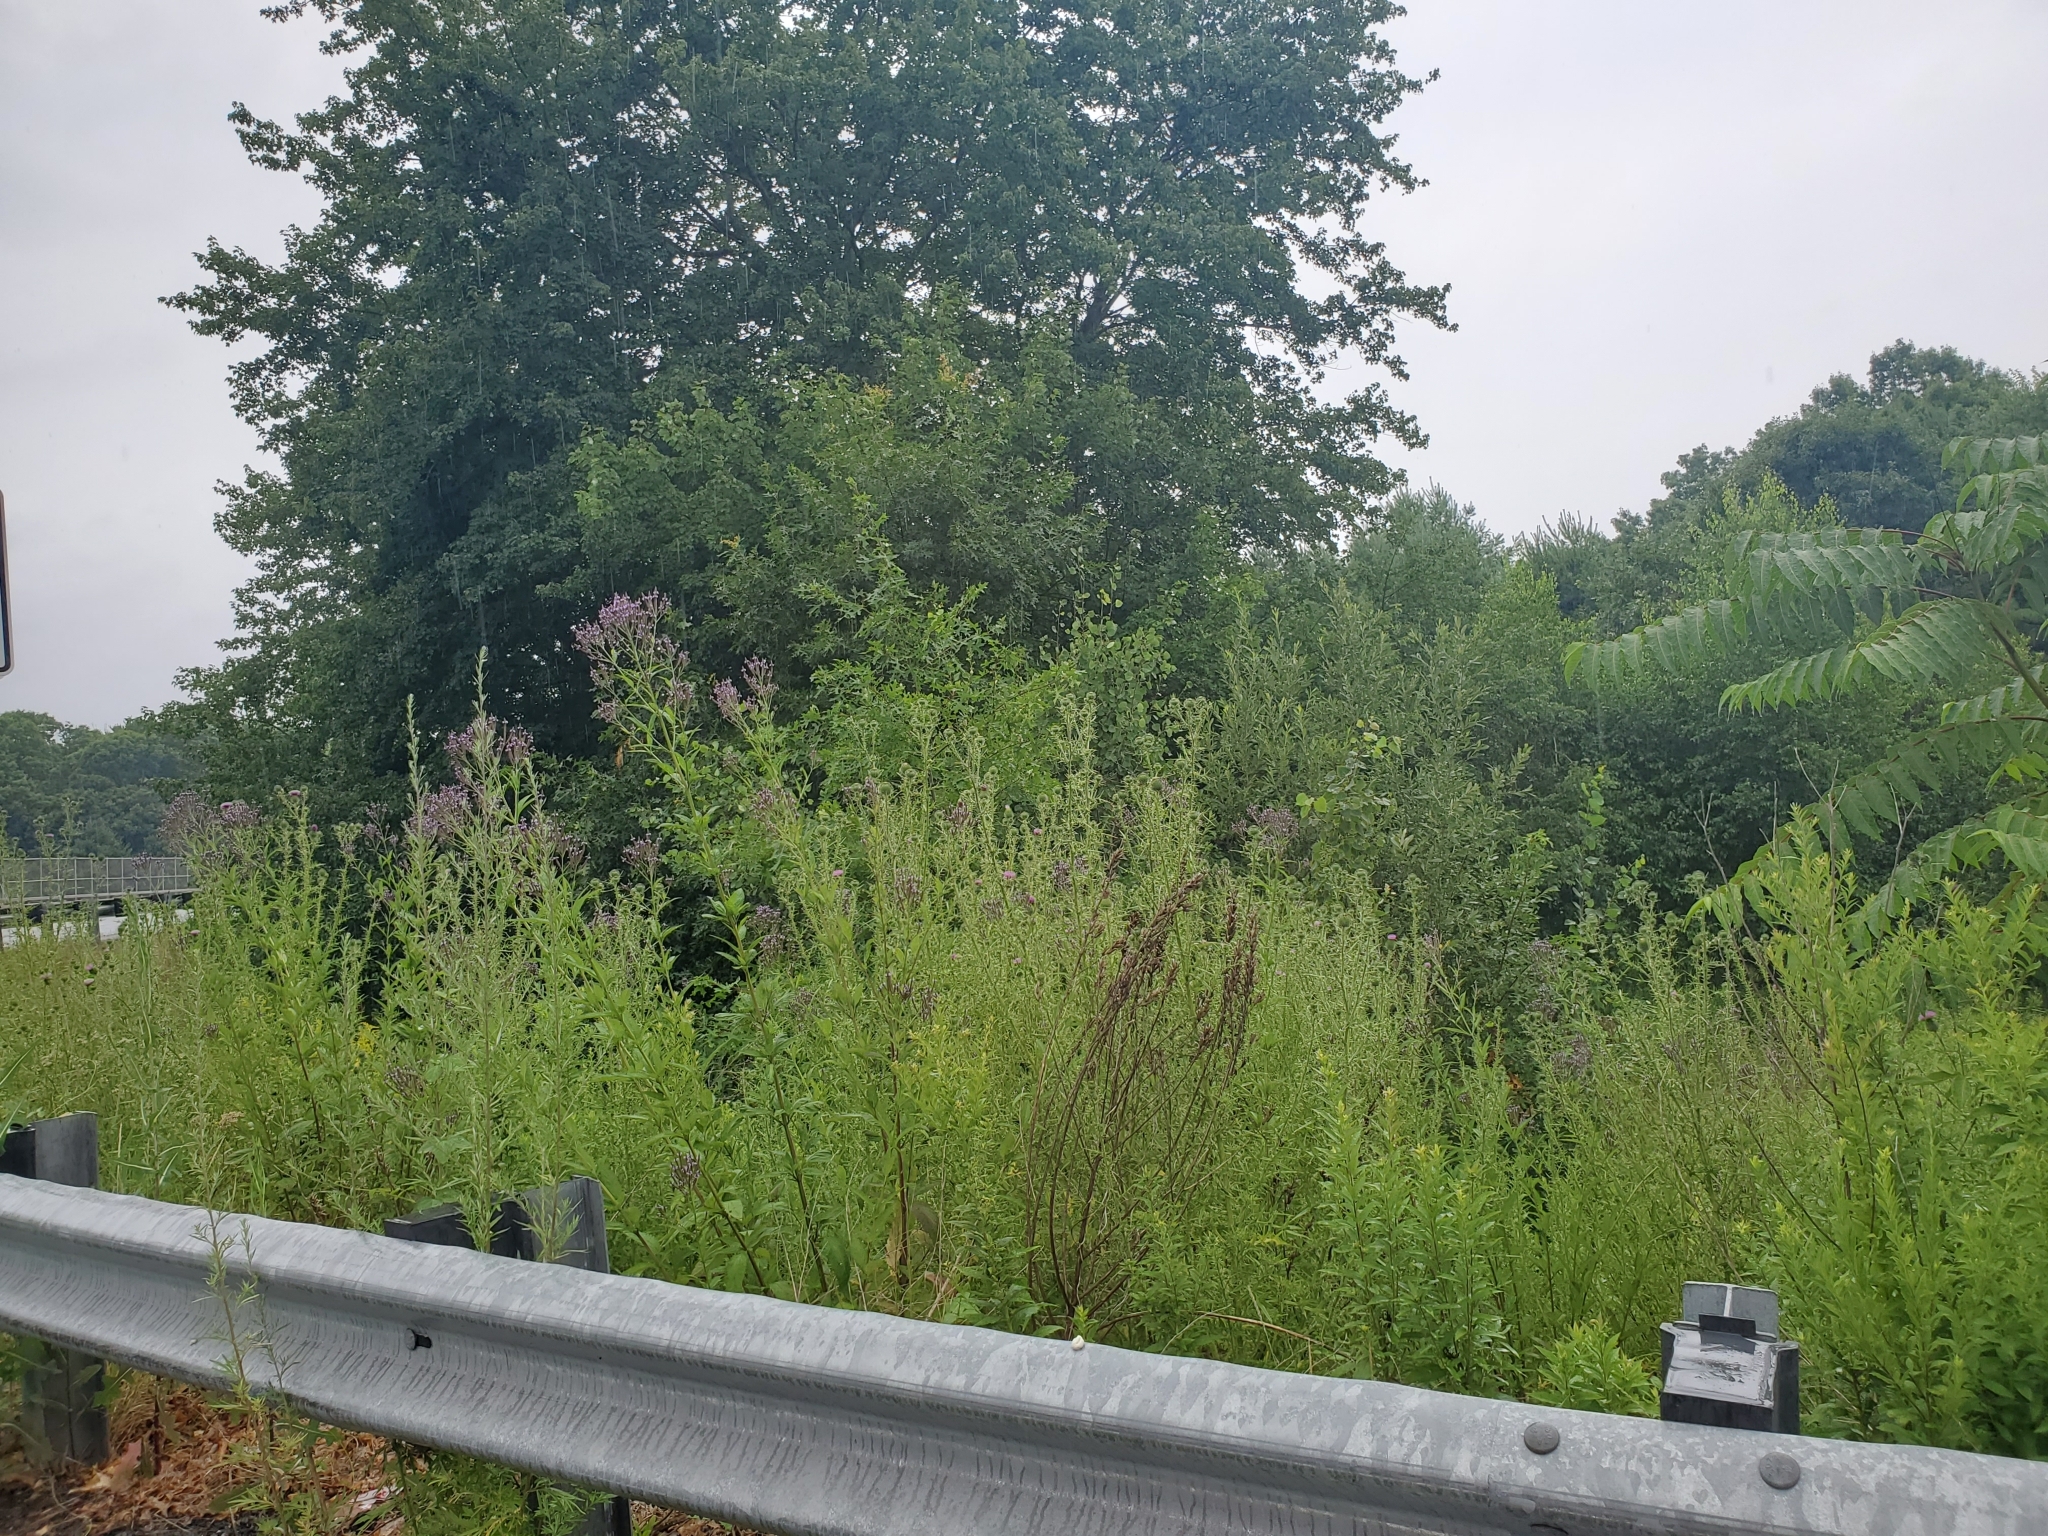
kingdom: Plantae
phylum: Tracheophyta
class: Magnoliopsida
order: Lamiales
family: Verbenaceae
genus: Verbena
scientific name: Verbena hastata
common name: American blue vervain
